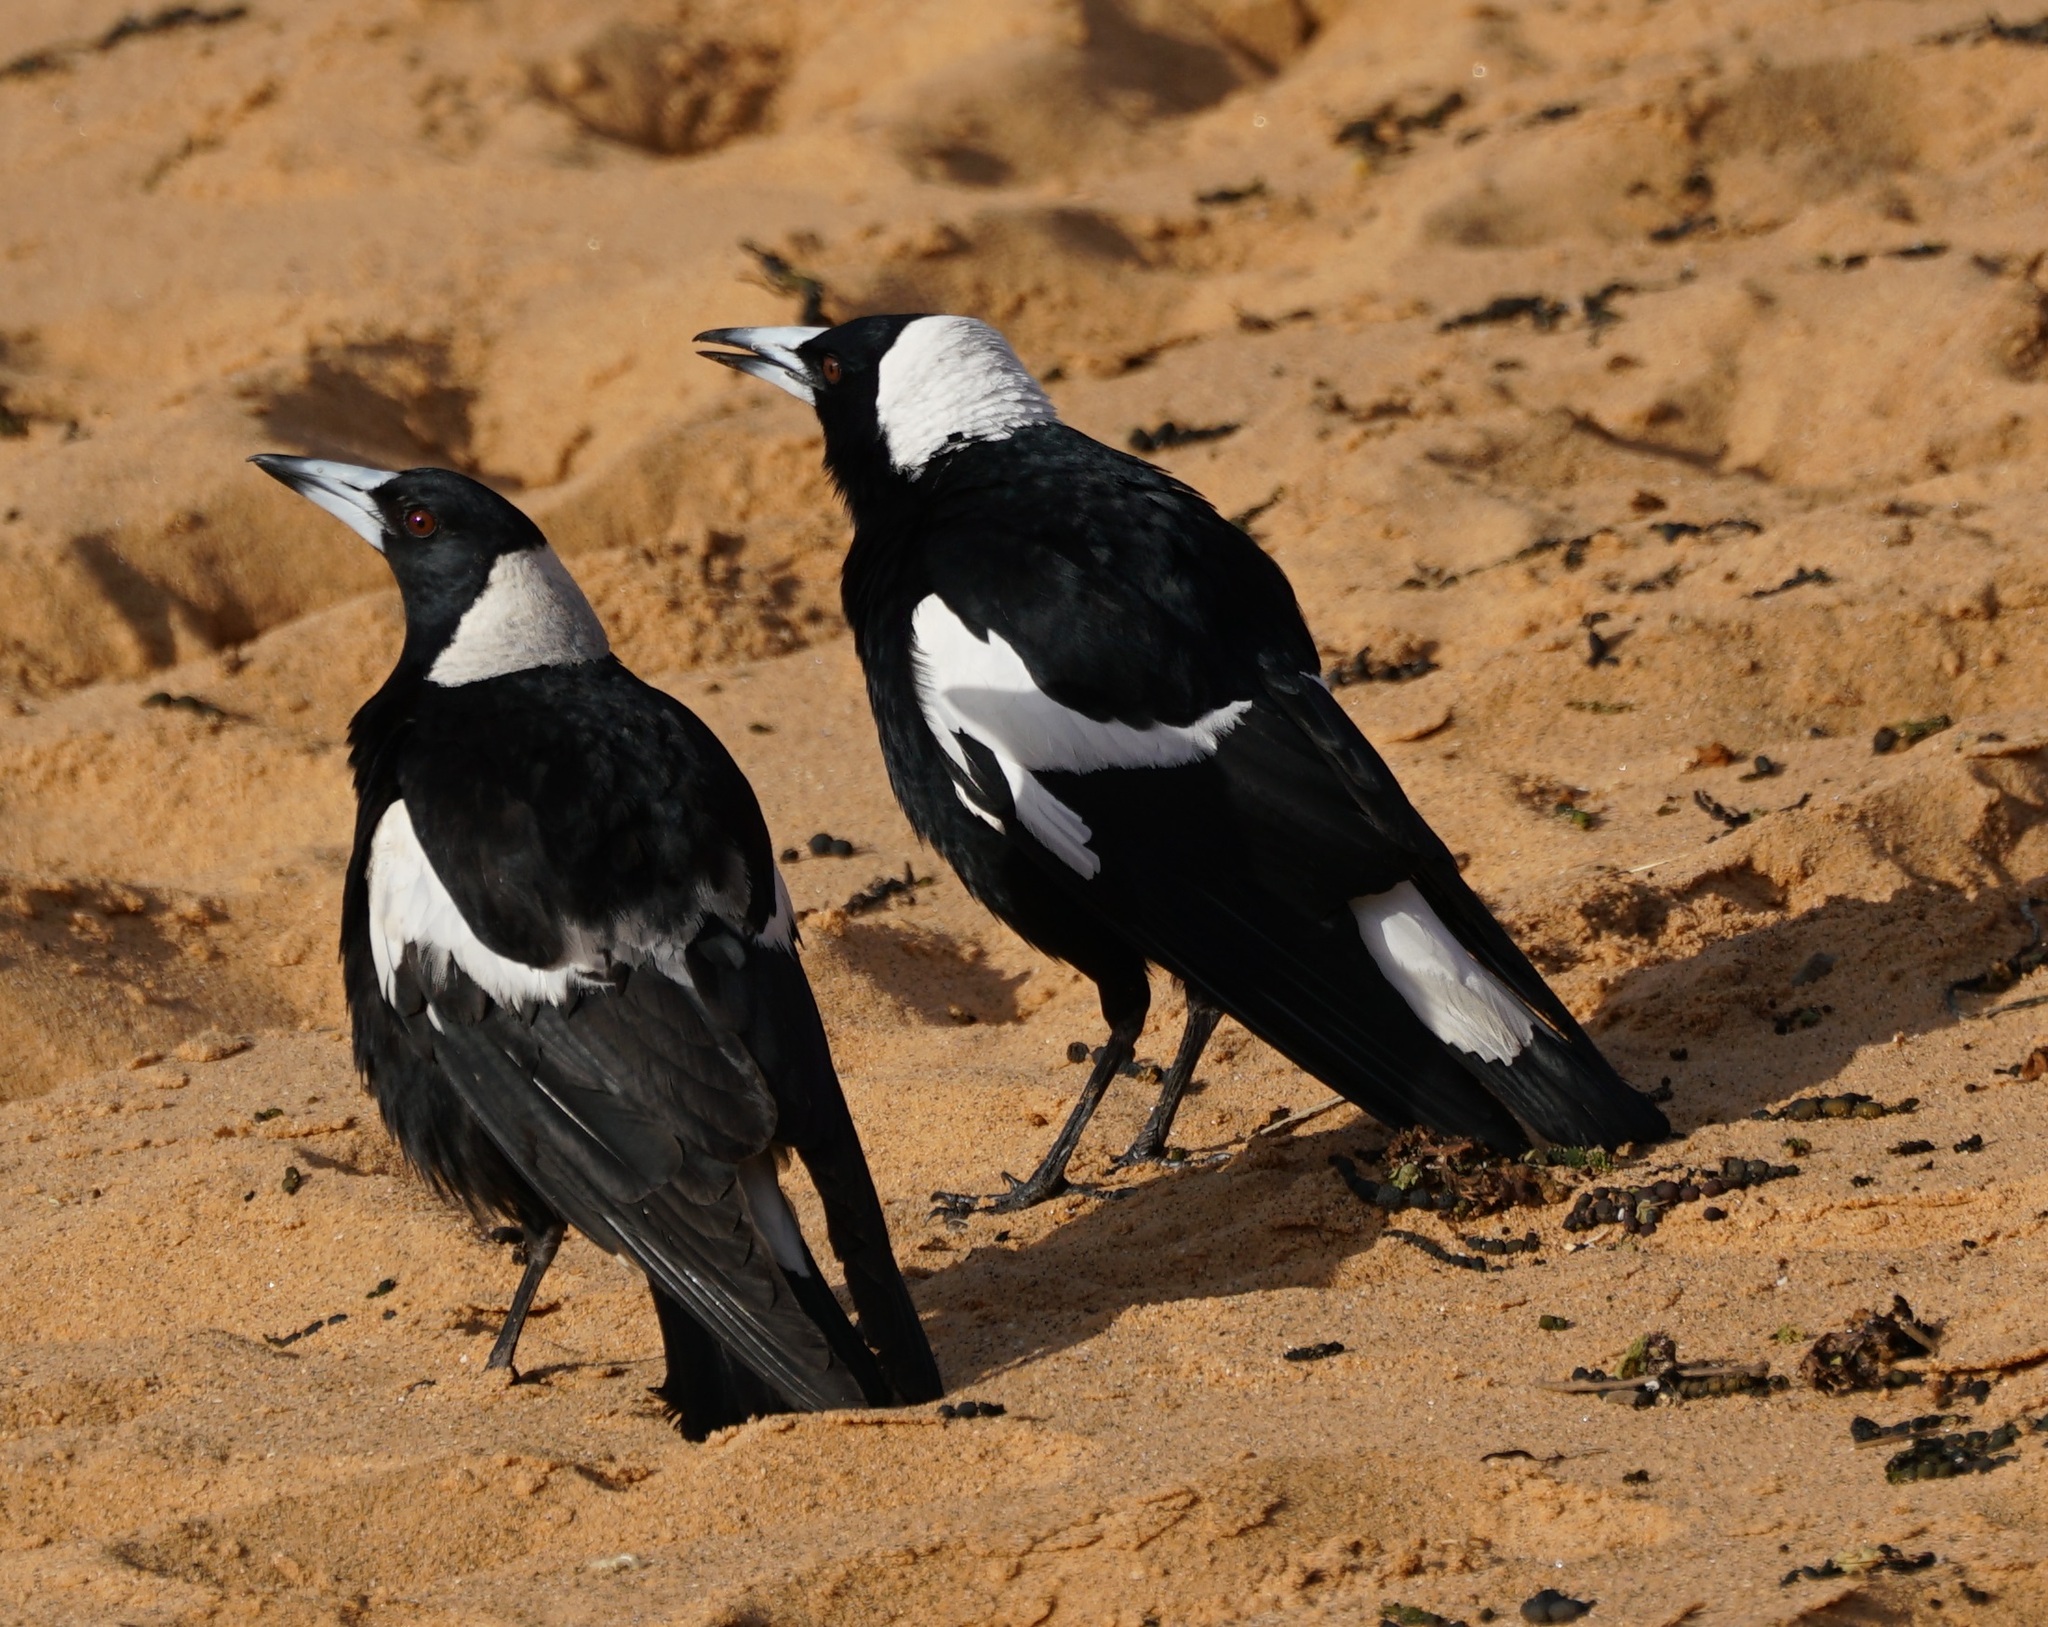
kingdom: Animalia
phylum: Chordata
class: Aves
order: Passeriformes
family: Cracticidae
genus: Gymnorhina
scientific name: Gymnorhina tibicen
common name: Australian magpie
